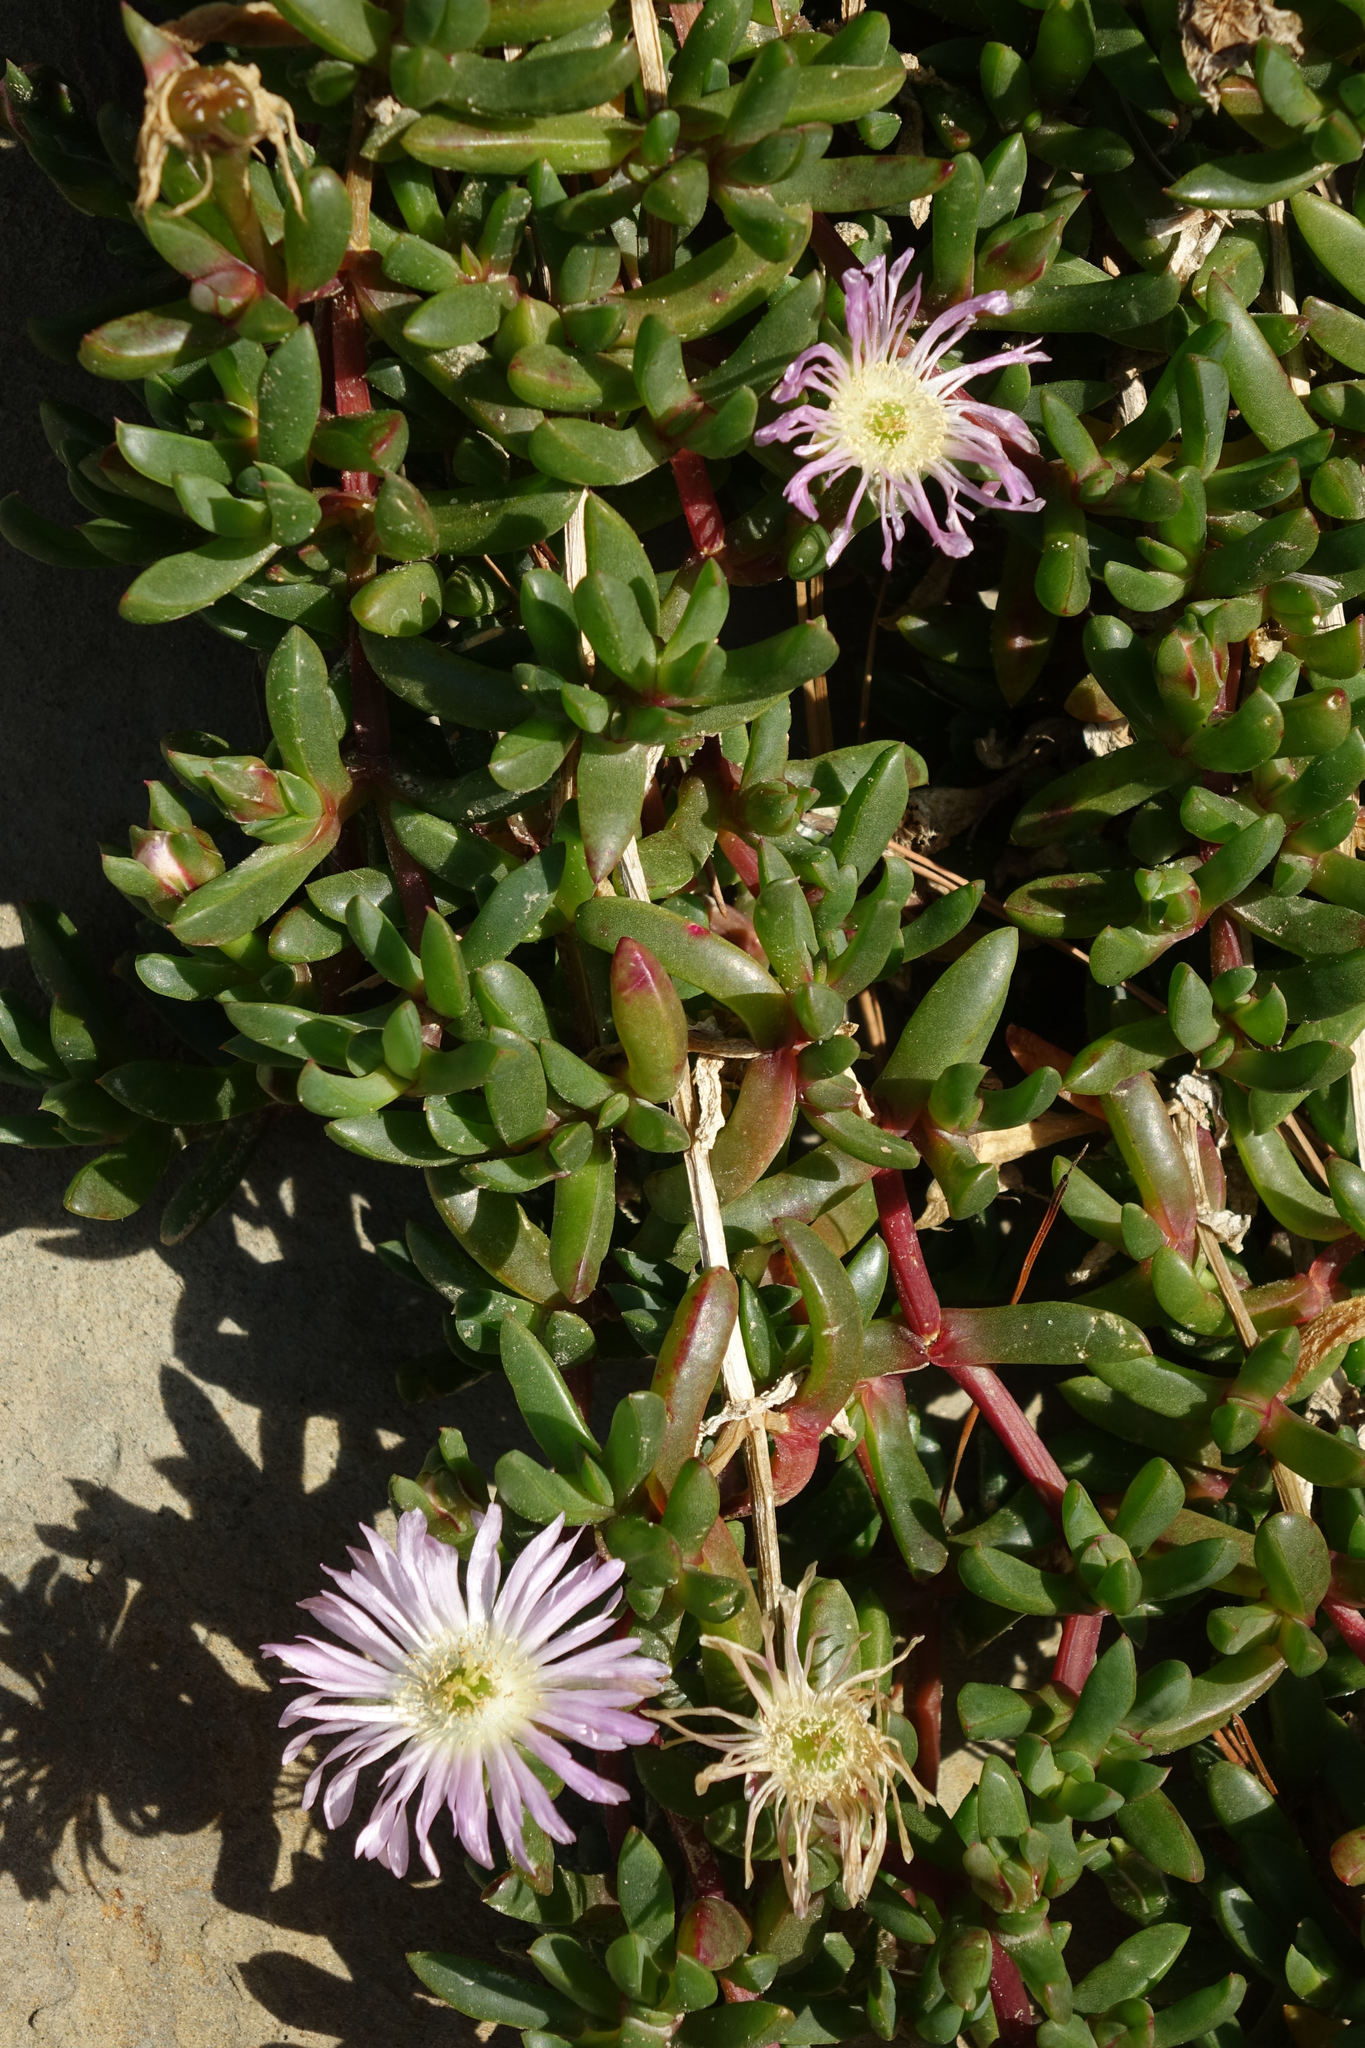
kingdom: Plantae
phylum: Tracheophyta
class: Magnoliopsida
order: Caryophyllales
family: Aizoaceae
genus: Disphyma
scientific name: Disphyma australe
